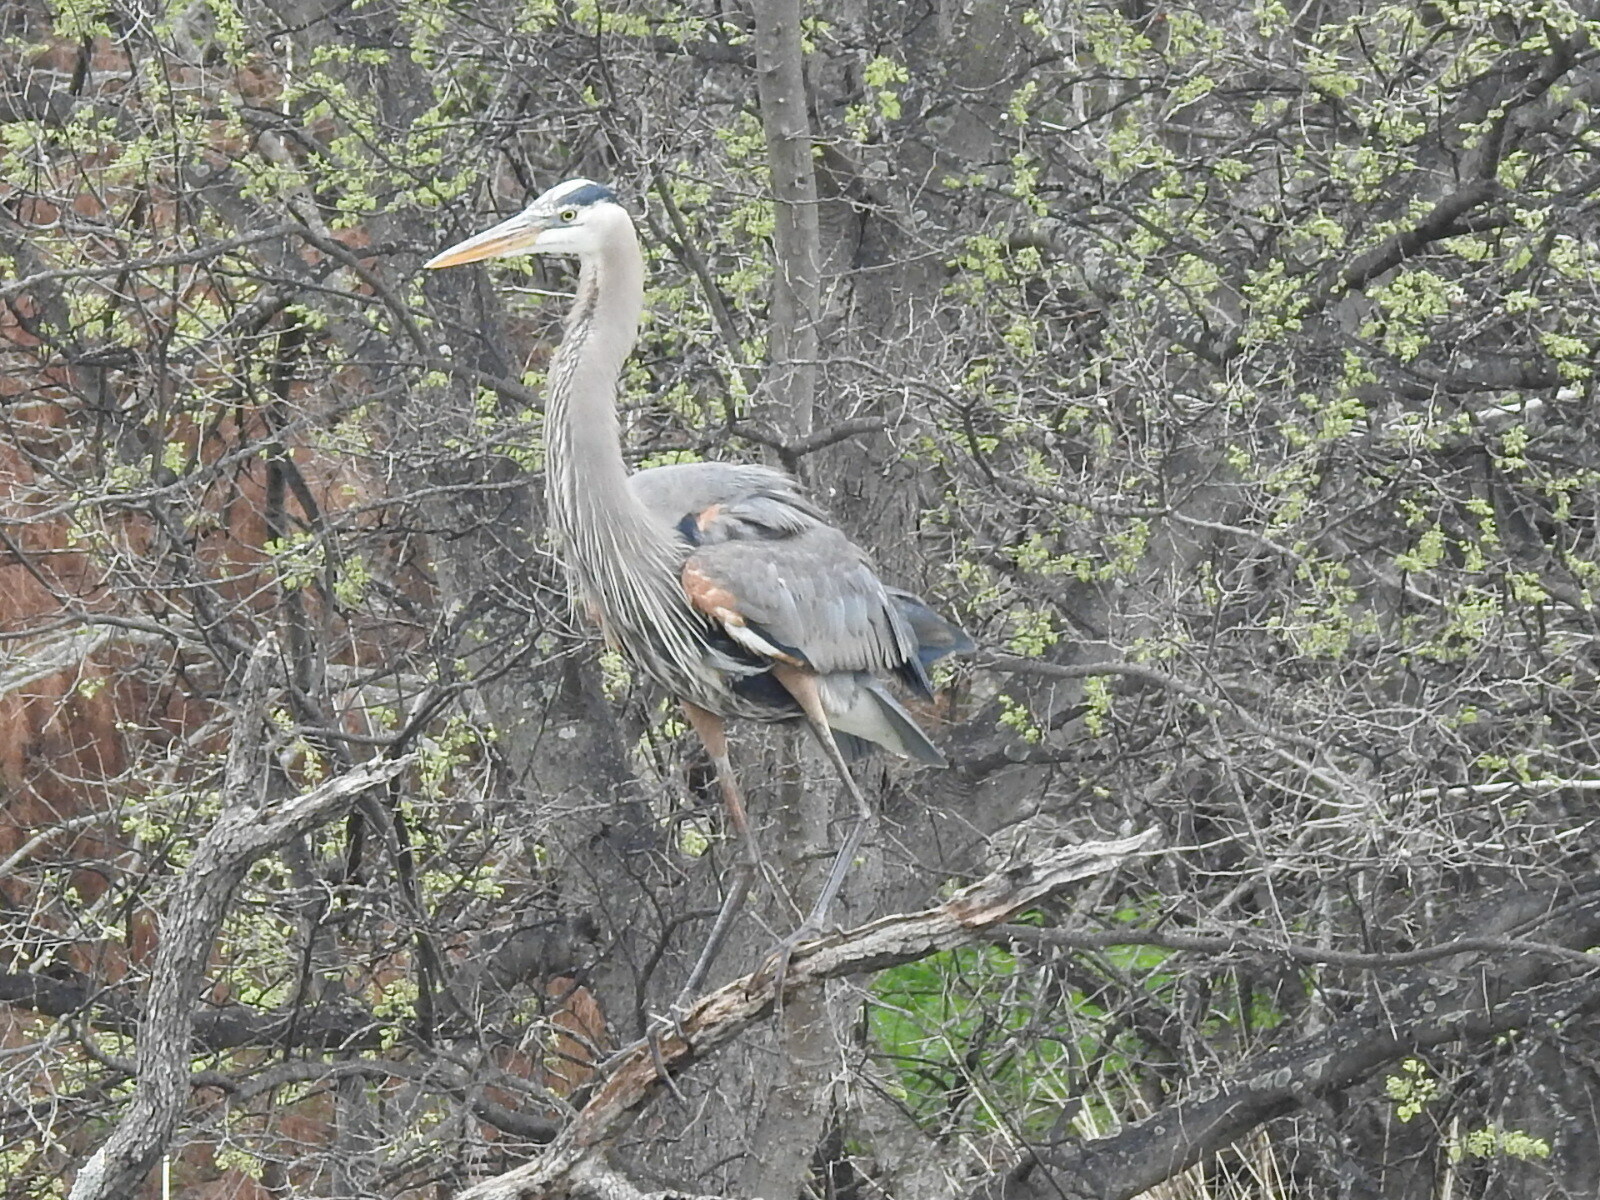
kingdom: Animalia
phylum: Chordata
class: Aves
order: Pelecaniformes
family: Ardeidae
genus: Ardea
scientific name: Ardea herodias
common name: Great blue heron
